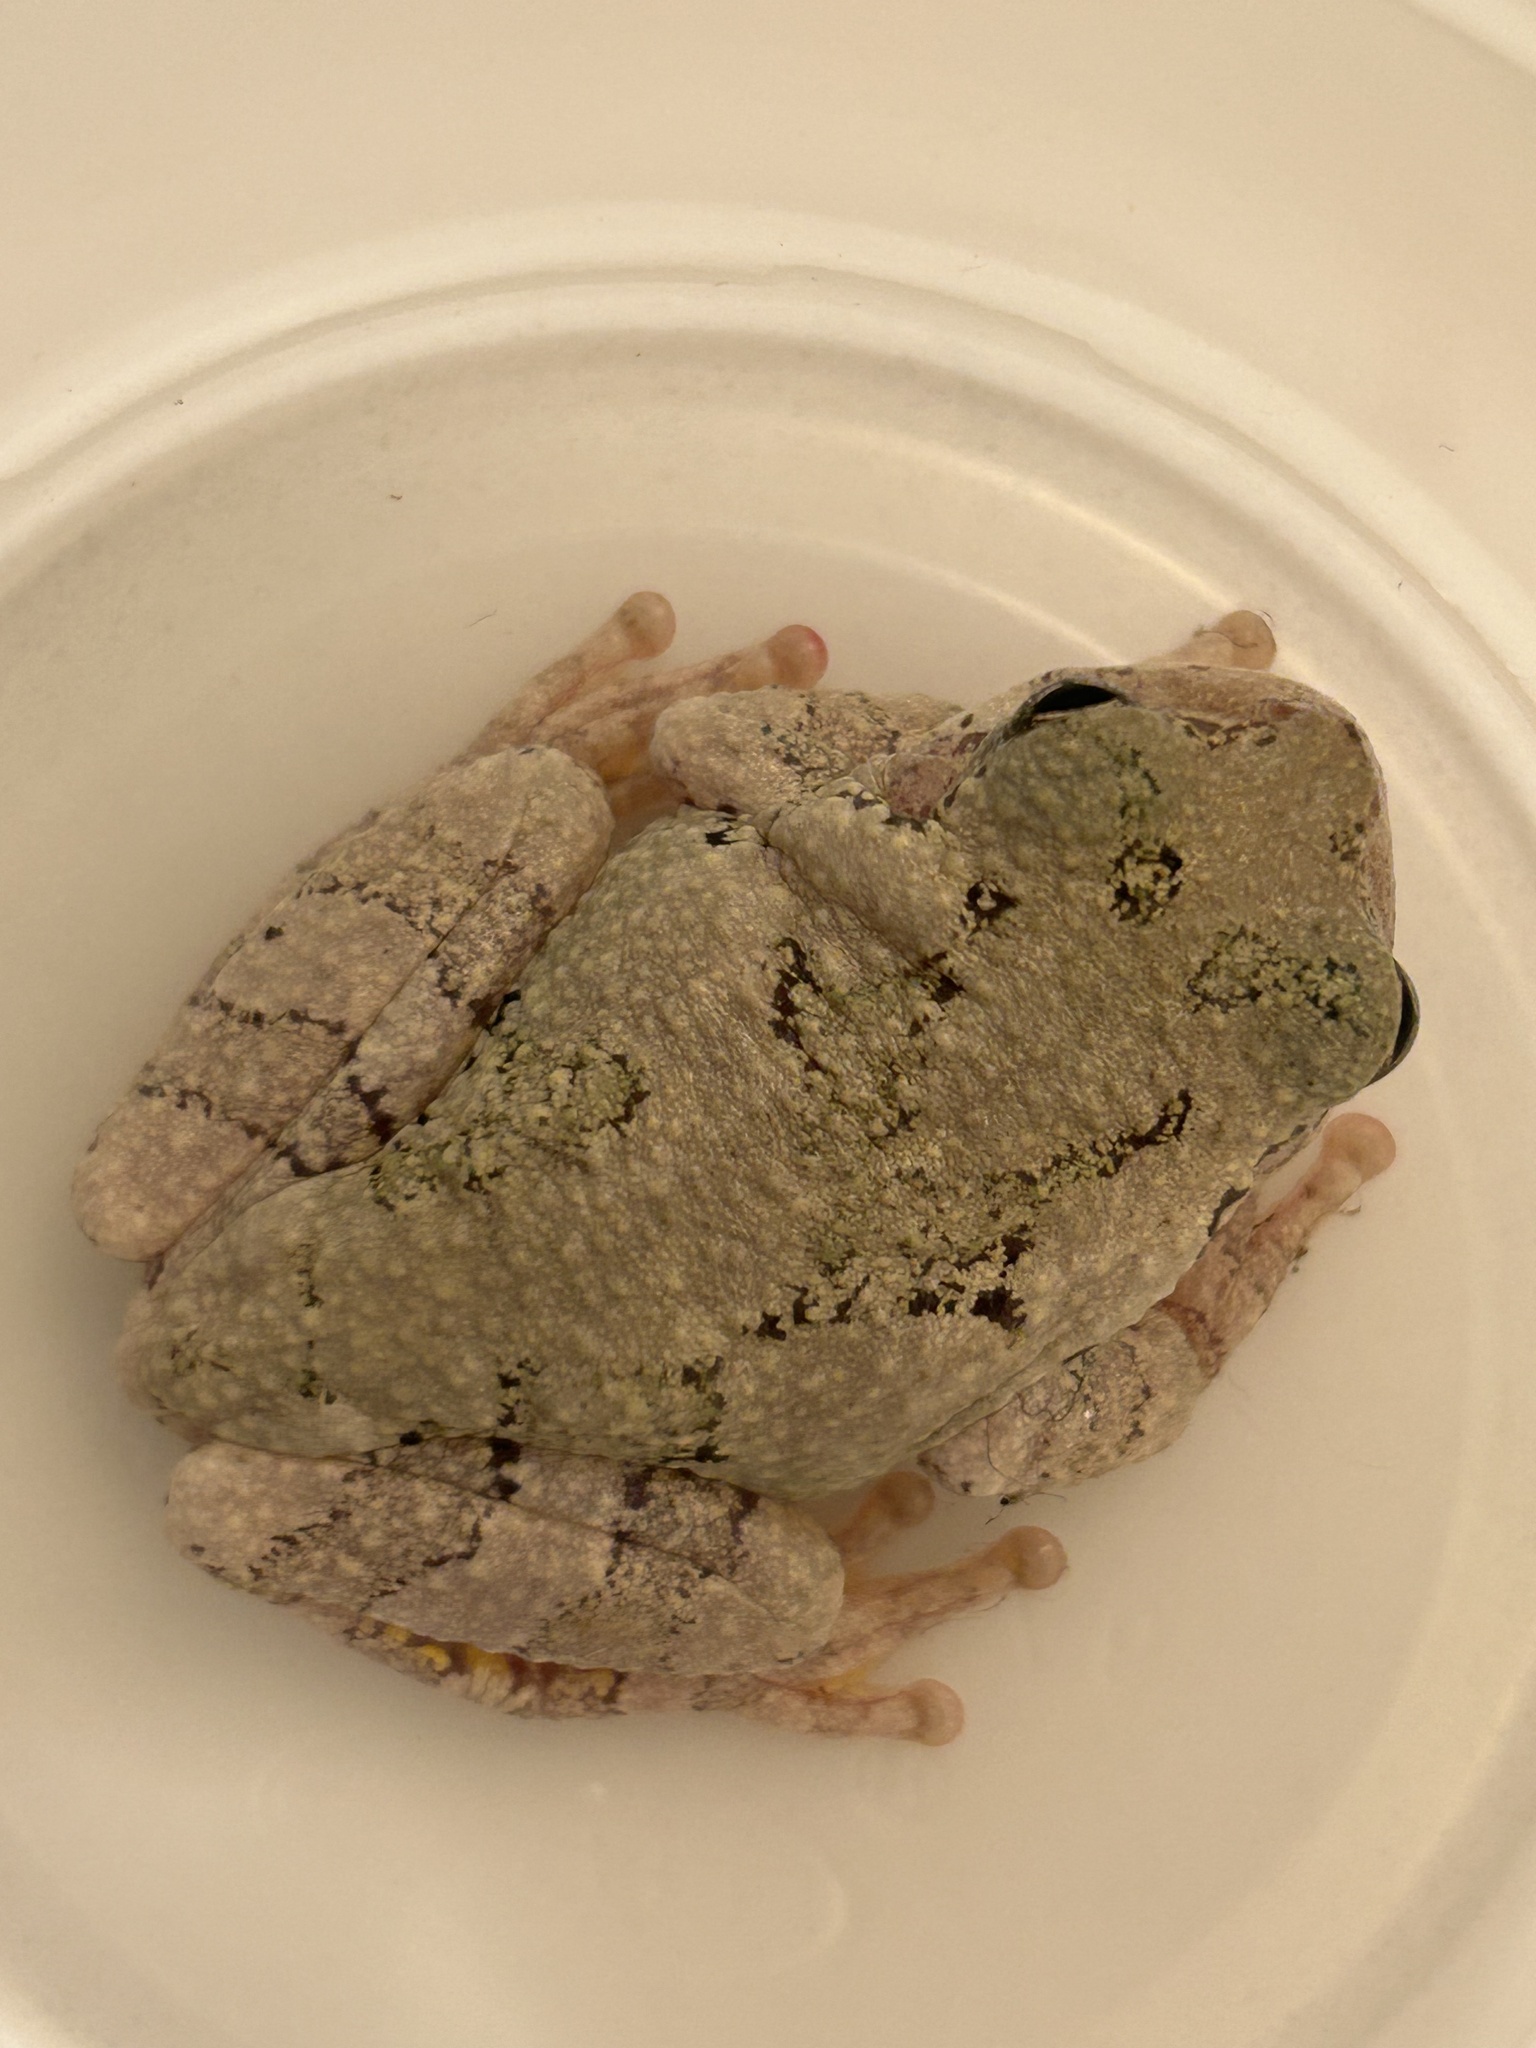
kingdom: Animalia
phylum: Chordata
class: Amphibia
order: Anura
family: Hylidae
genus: Dryophytes
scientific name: Dryophytes versicolor
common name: Gray treefrog
